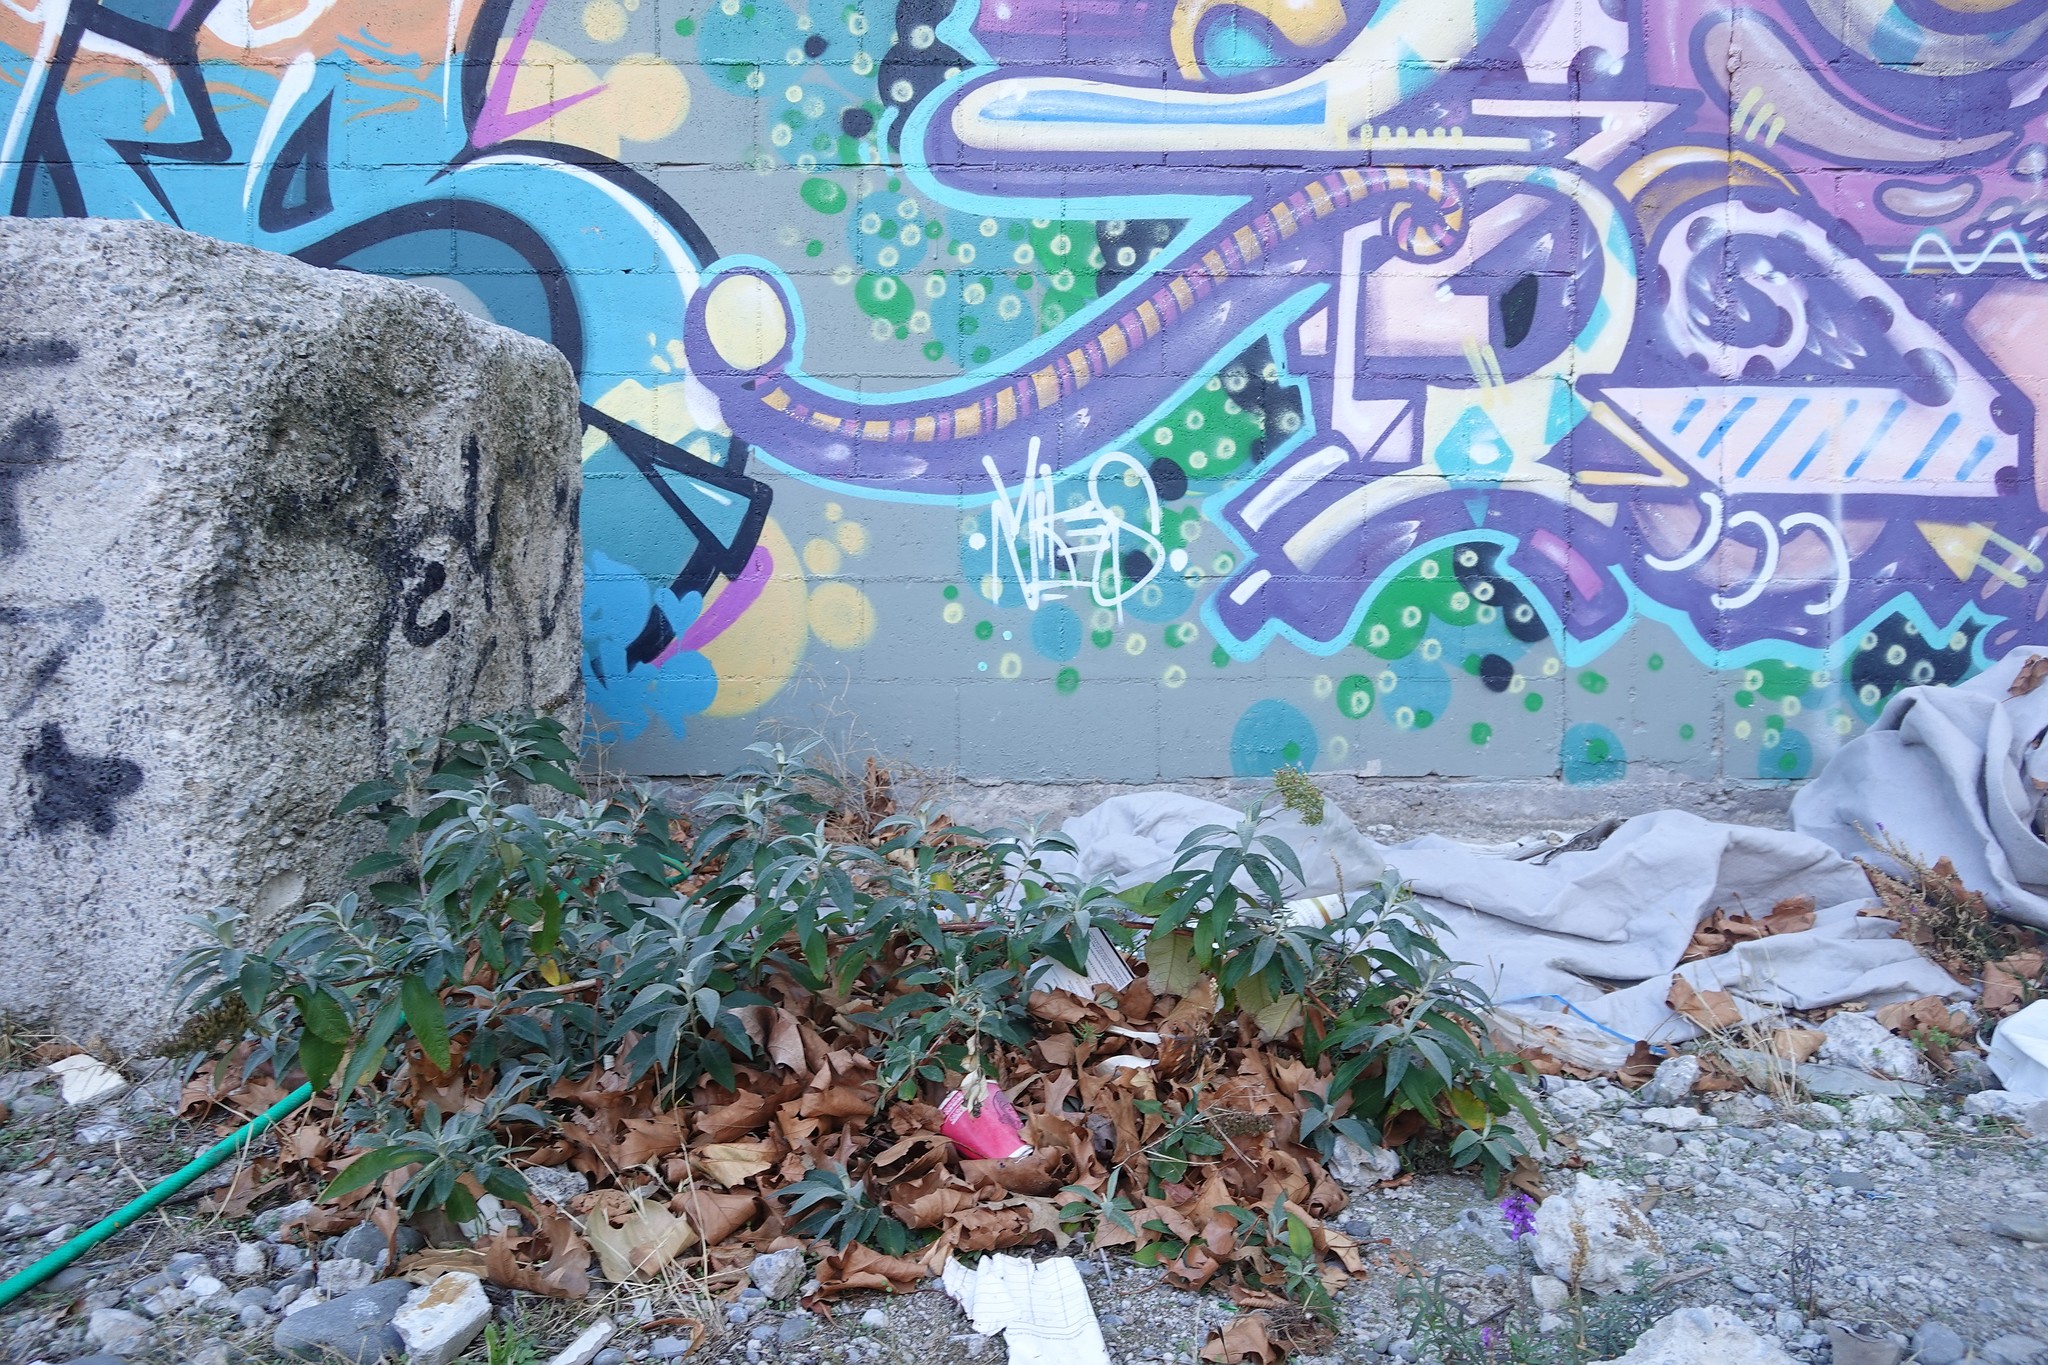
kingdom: Plantae
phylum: Tracheophyta
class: Magnoliopsida
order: Lamiales
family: Scrophulariaceae
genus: Buddleja
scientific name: Buddleja davidii
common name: Butterfly-bush
